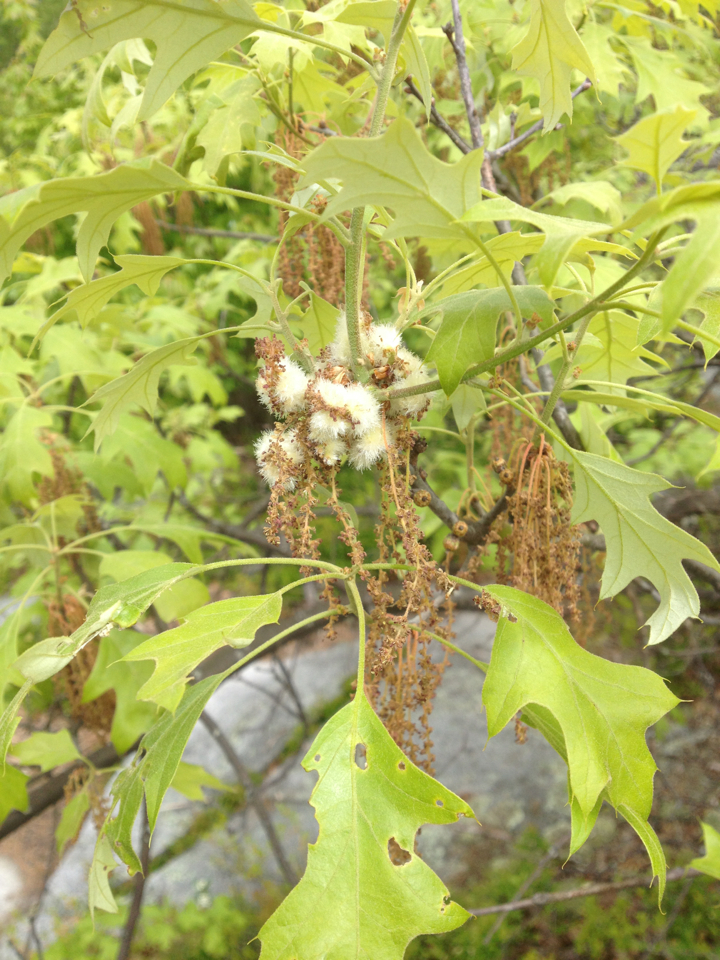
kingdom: Animalia
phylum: Arthropoda
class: Insecta
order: Hymenoptera
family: Cynipidae
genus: Callirhytis
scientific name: Callirhytis
